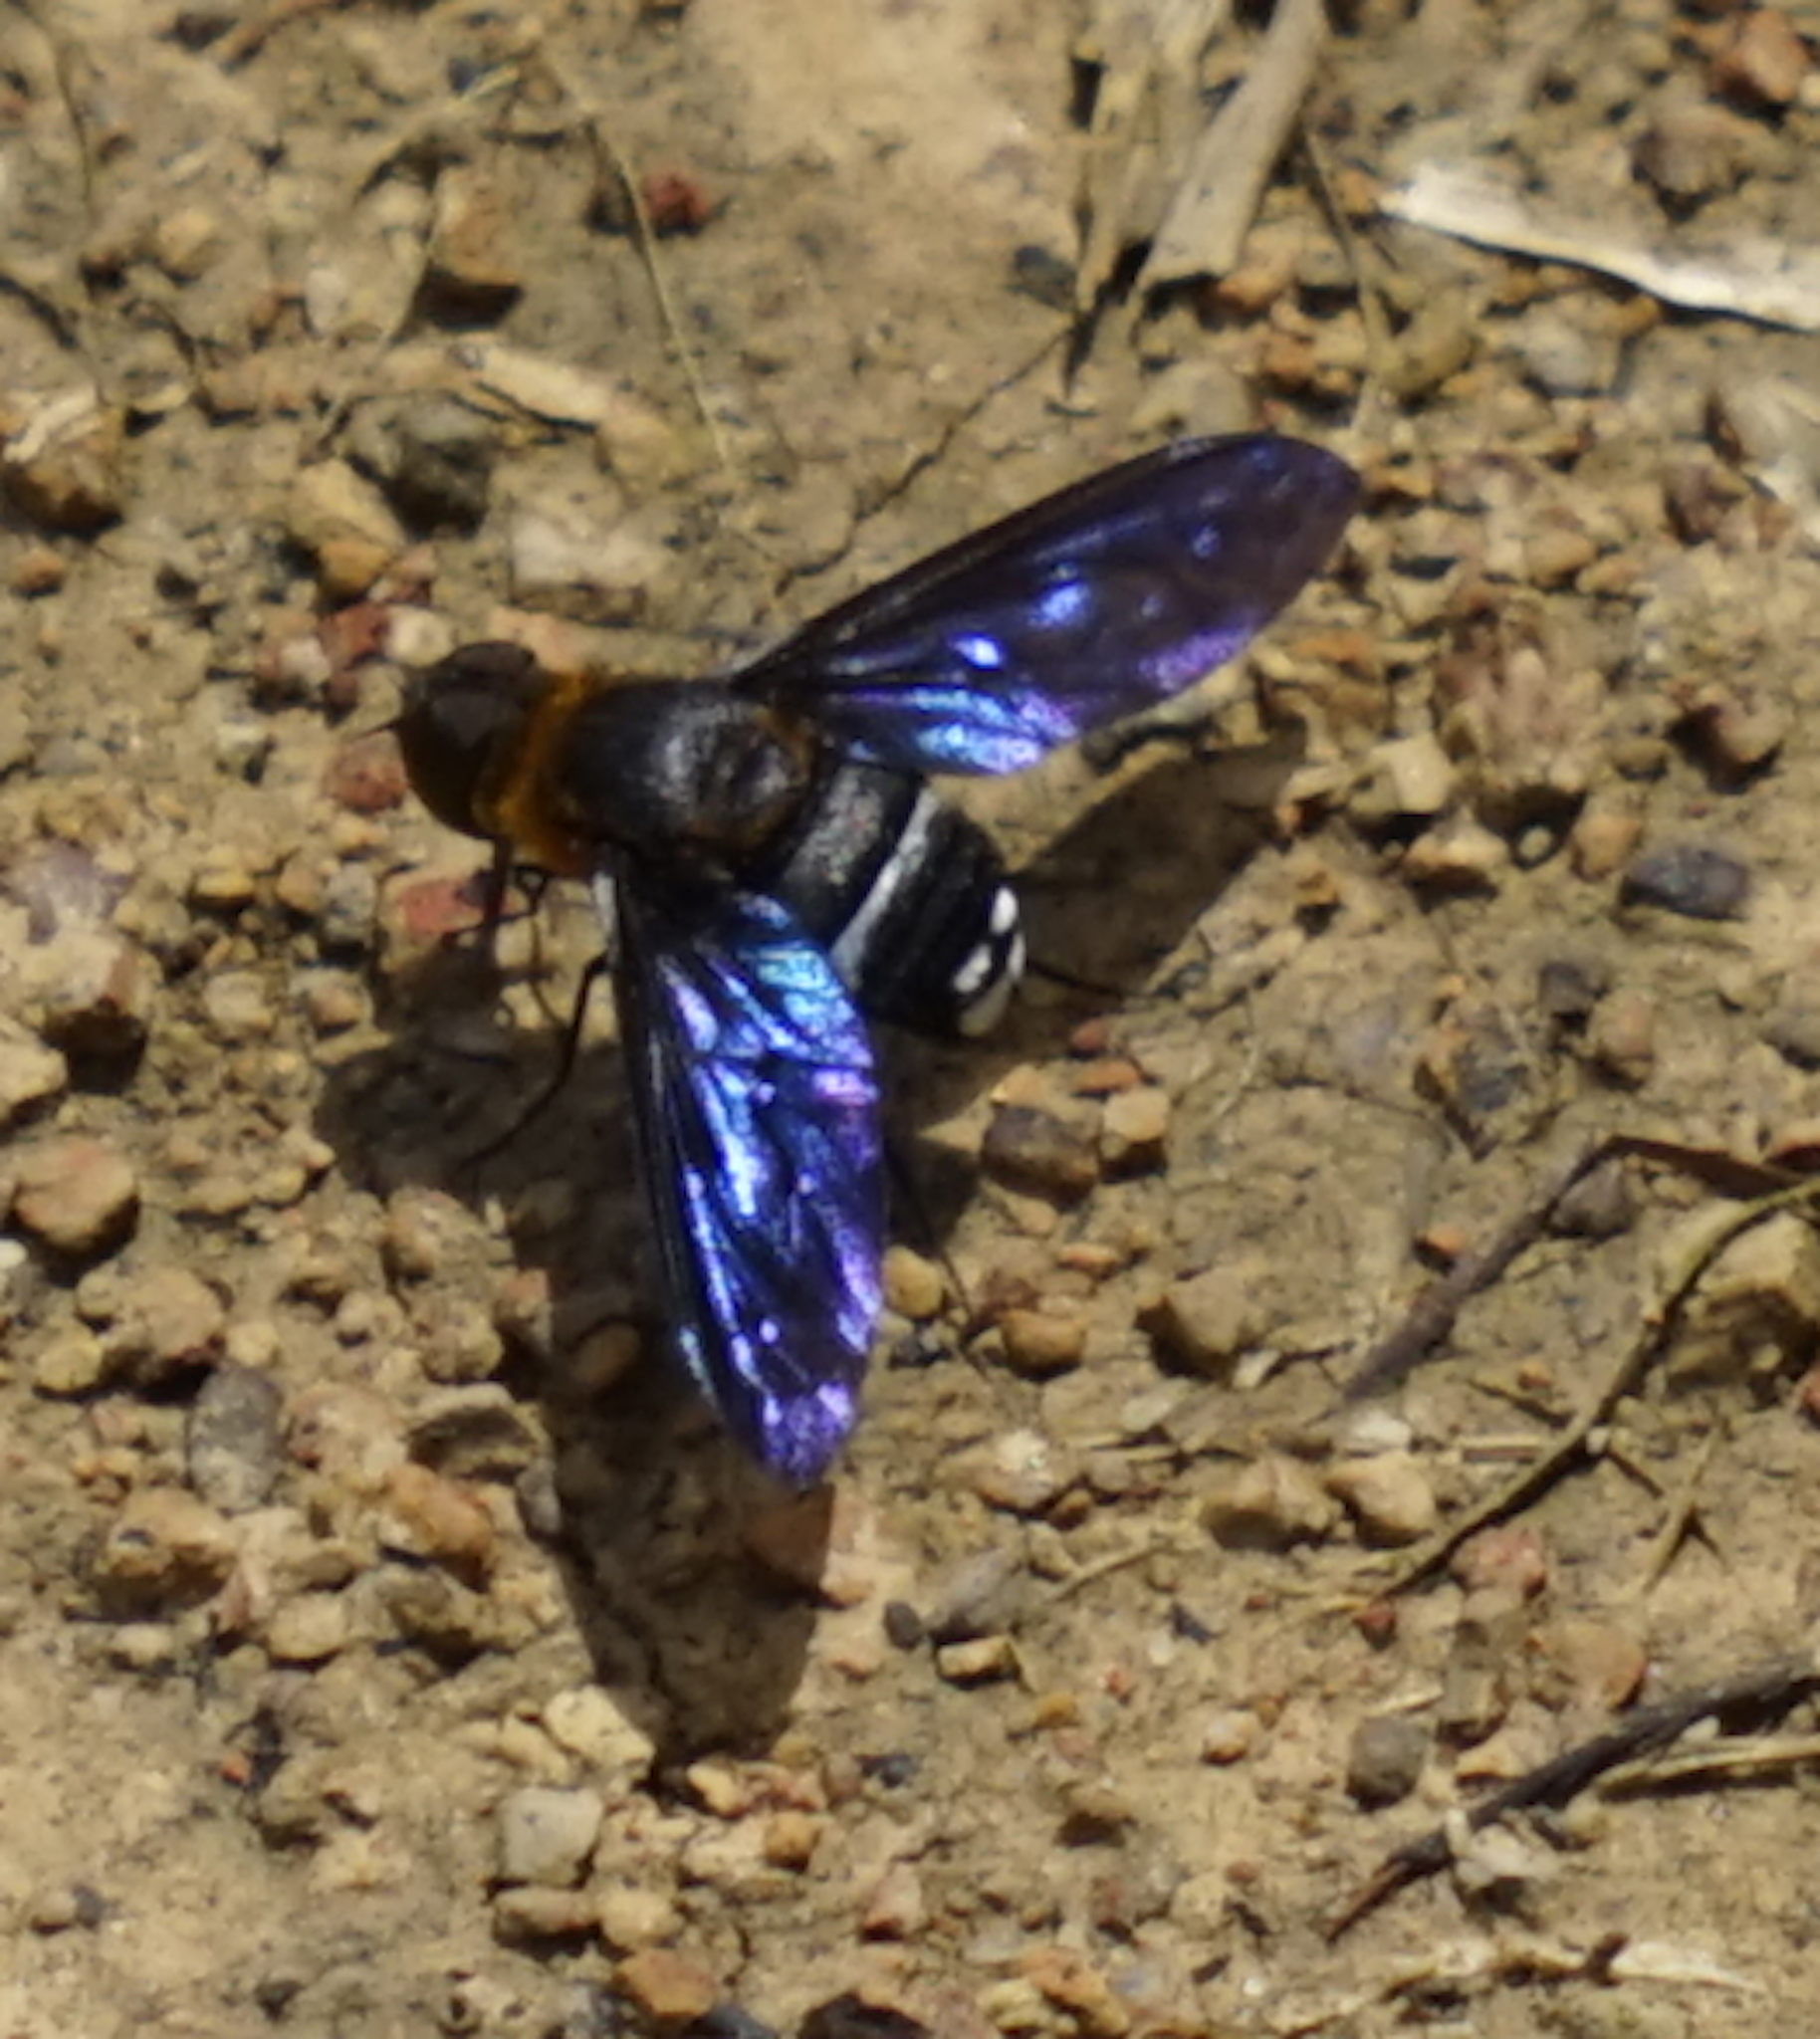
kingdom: Animalia
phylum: Arthropoda
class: Insecta
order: Diptera
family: Bombyliidae
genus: Ligyra
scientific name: Ligyra tantalus
